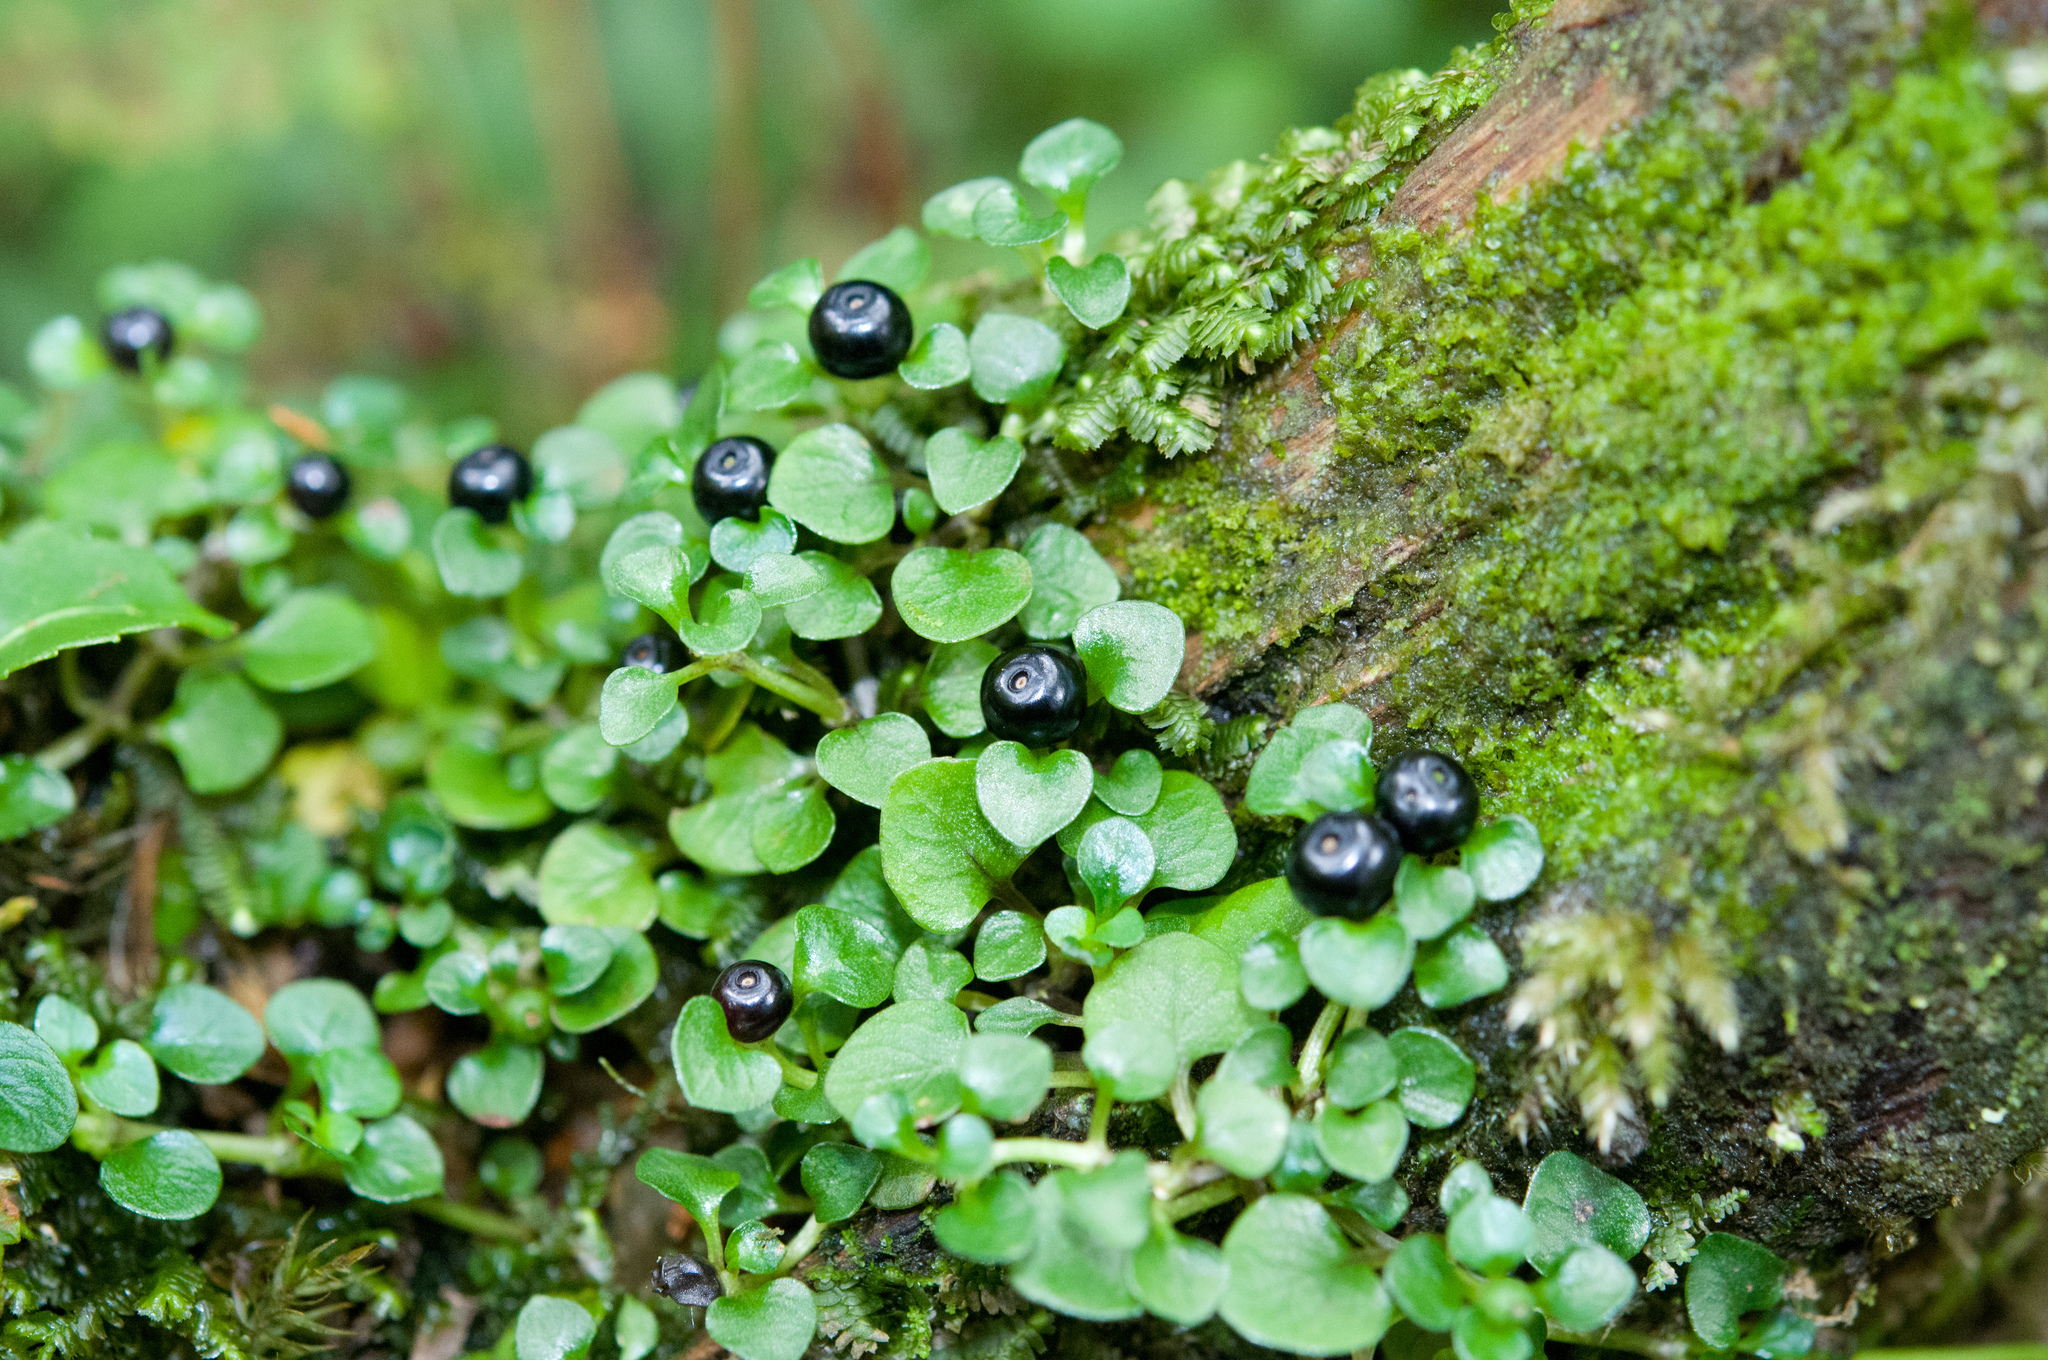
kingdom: Plantae
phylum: Tracheophyta
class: Magnoliopsida
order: Gentianales
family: Rubiaceae
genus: Nertera
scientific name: Nertera nigricarpa
